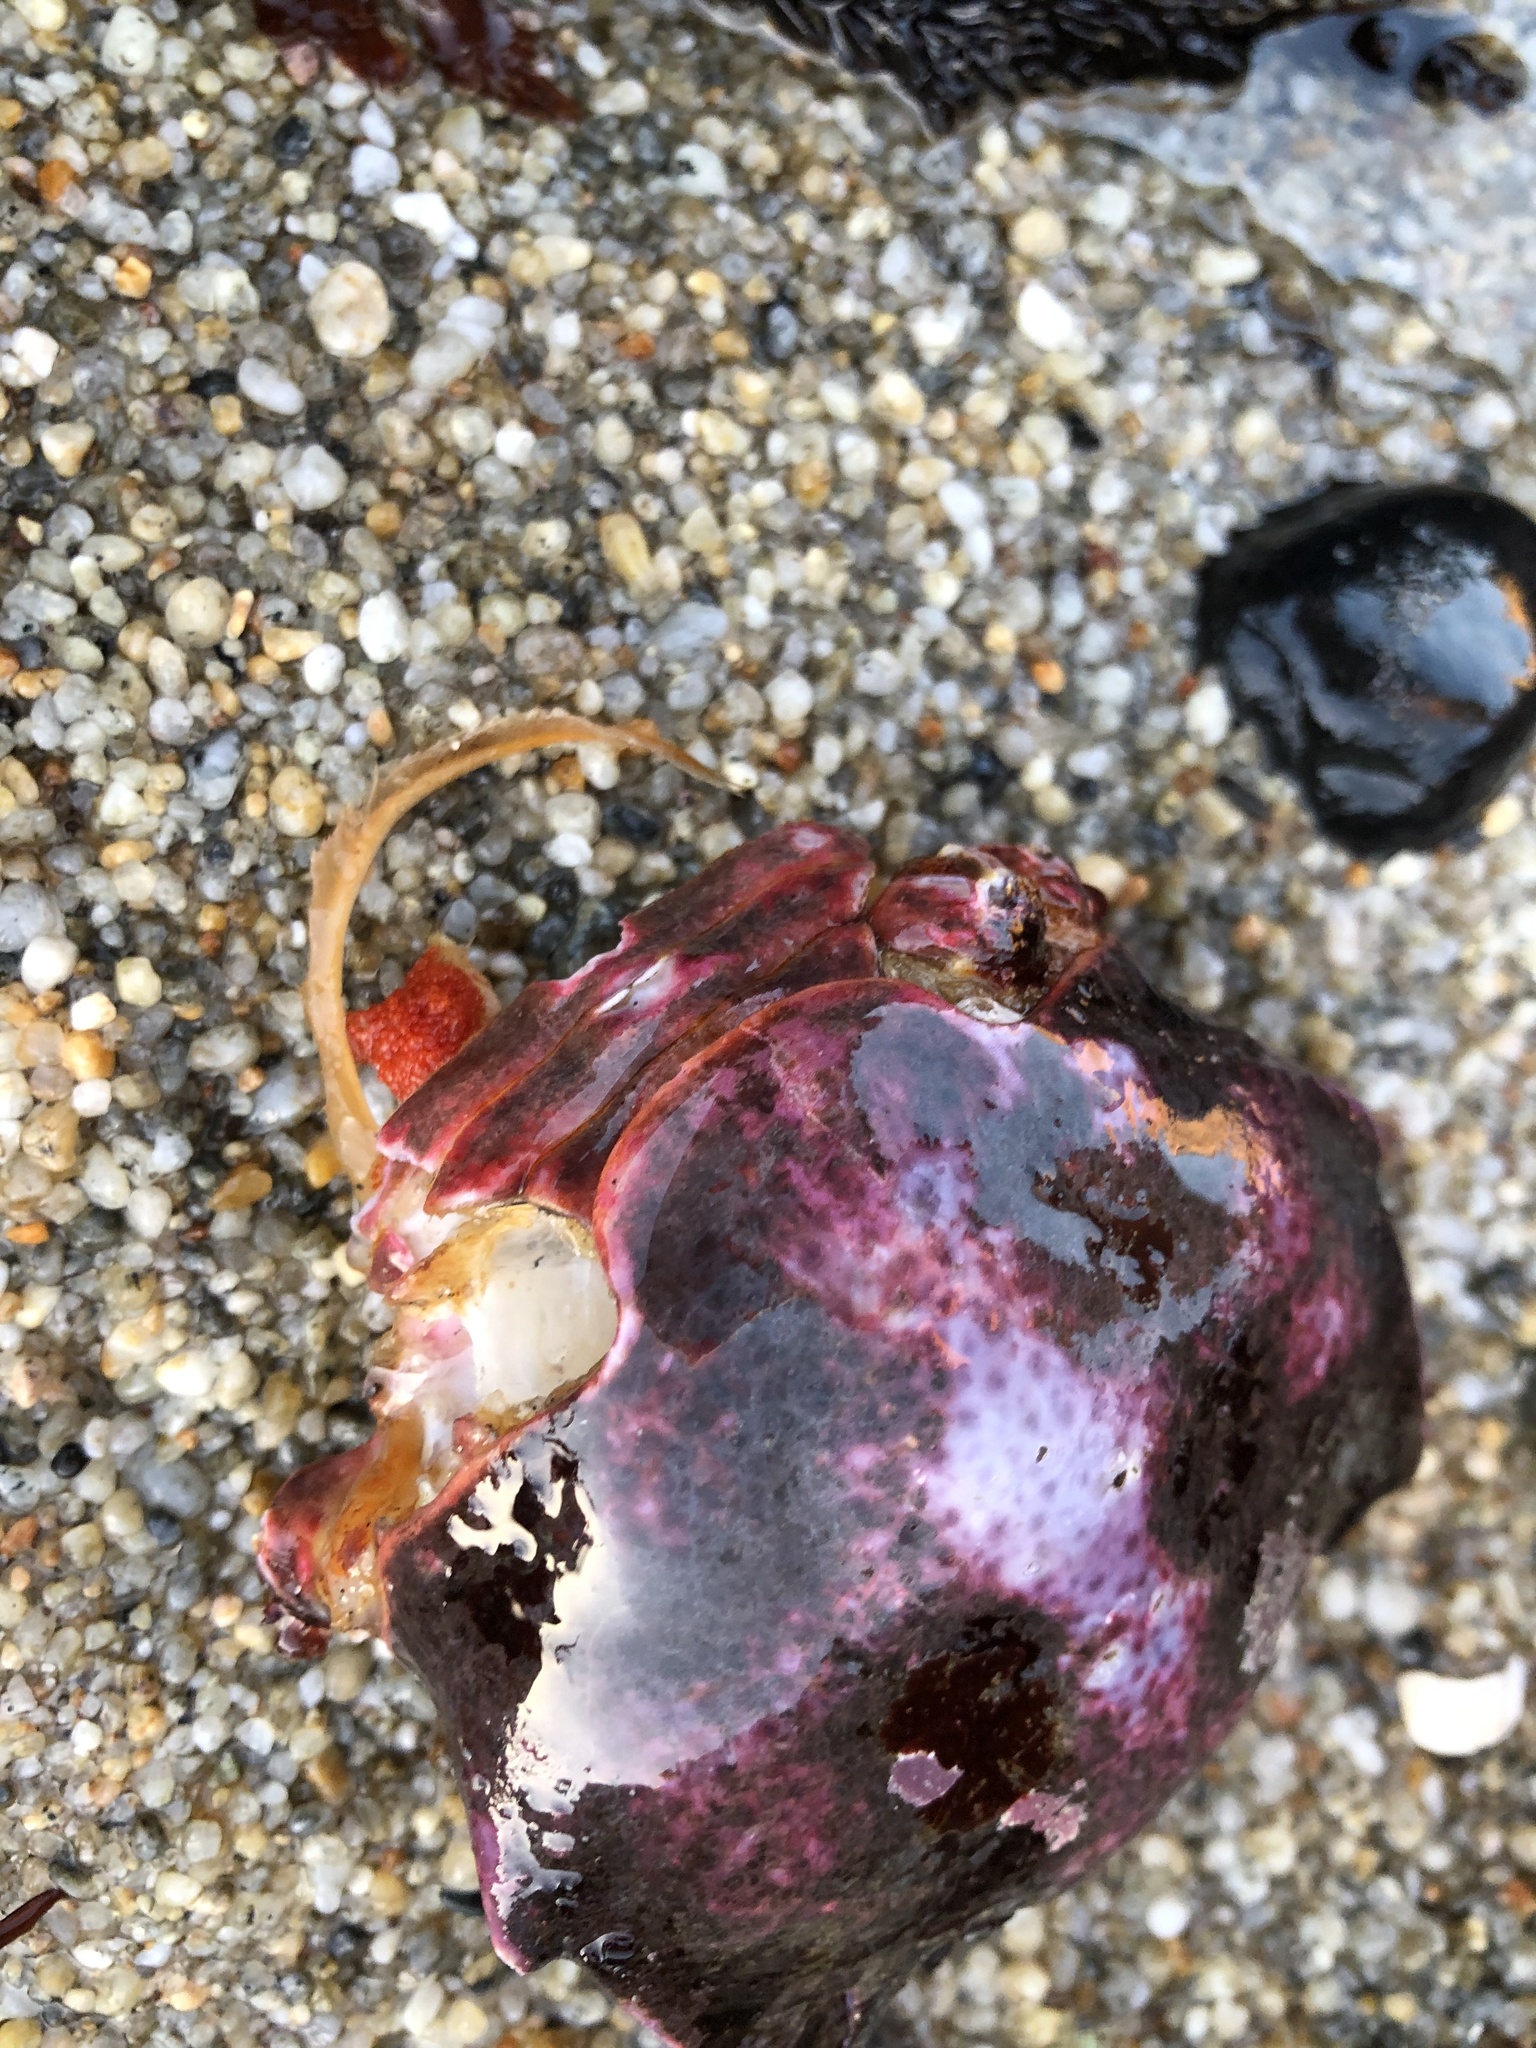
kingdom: Animalia
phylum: Arthropoda
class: Malacostraca
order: Decapoda
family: Epialtidae
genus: Pugettia
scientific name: Pugettia producta
